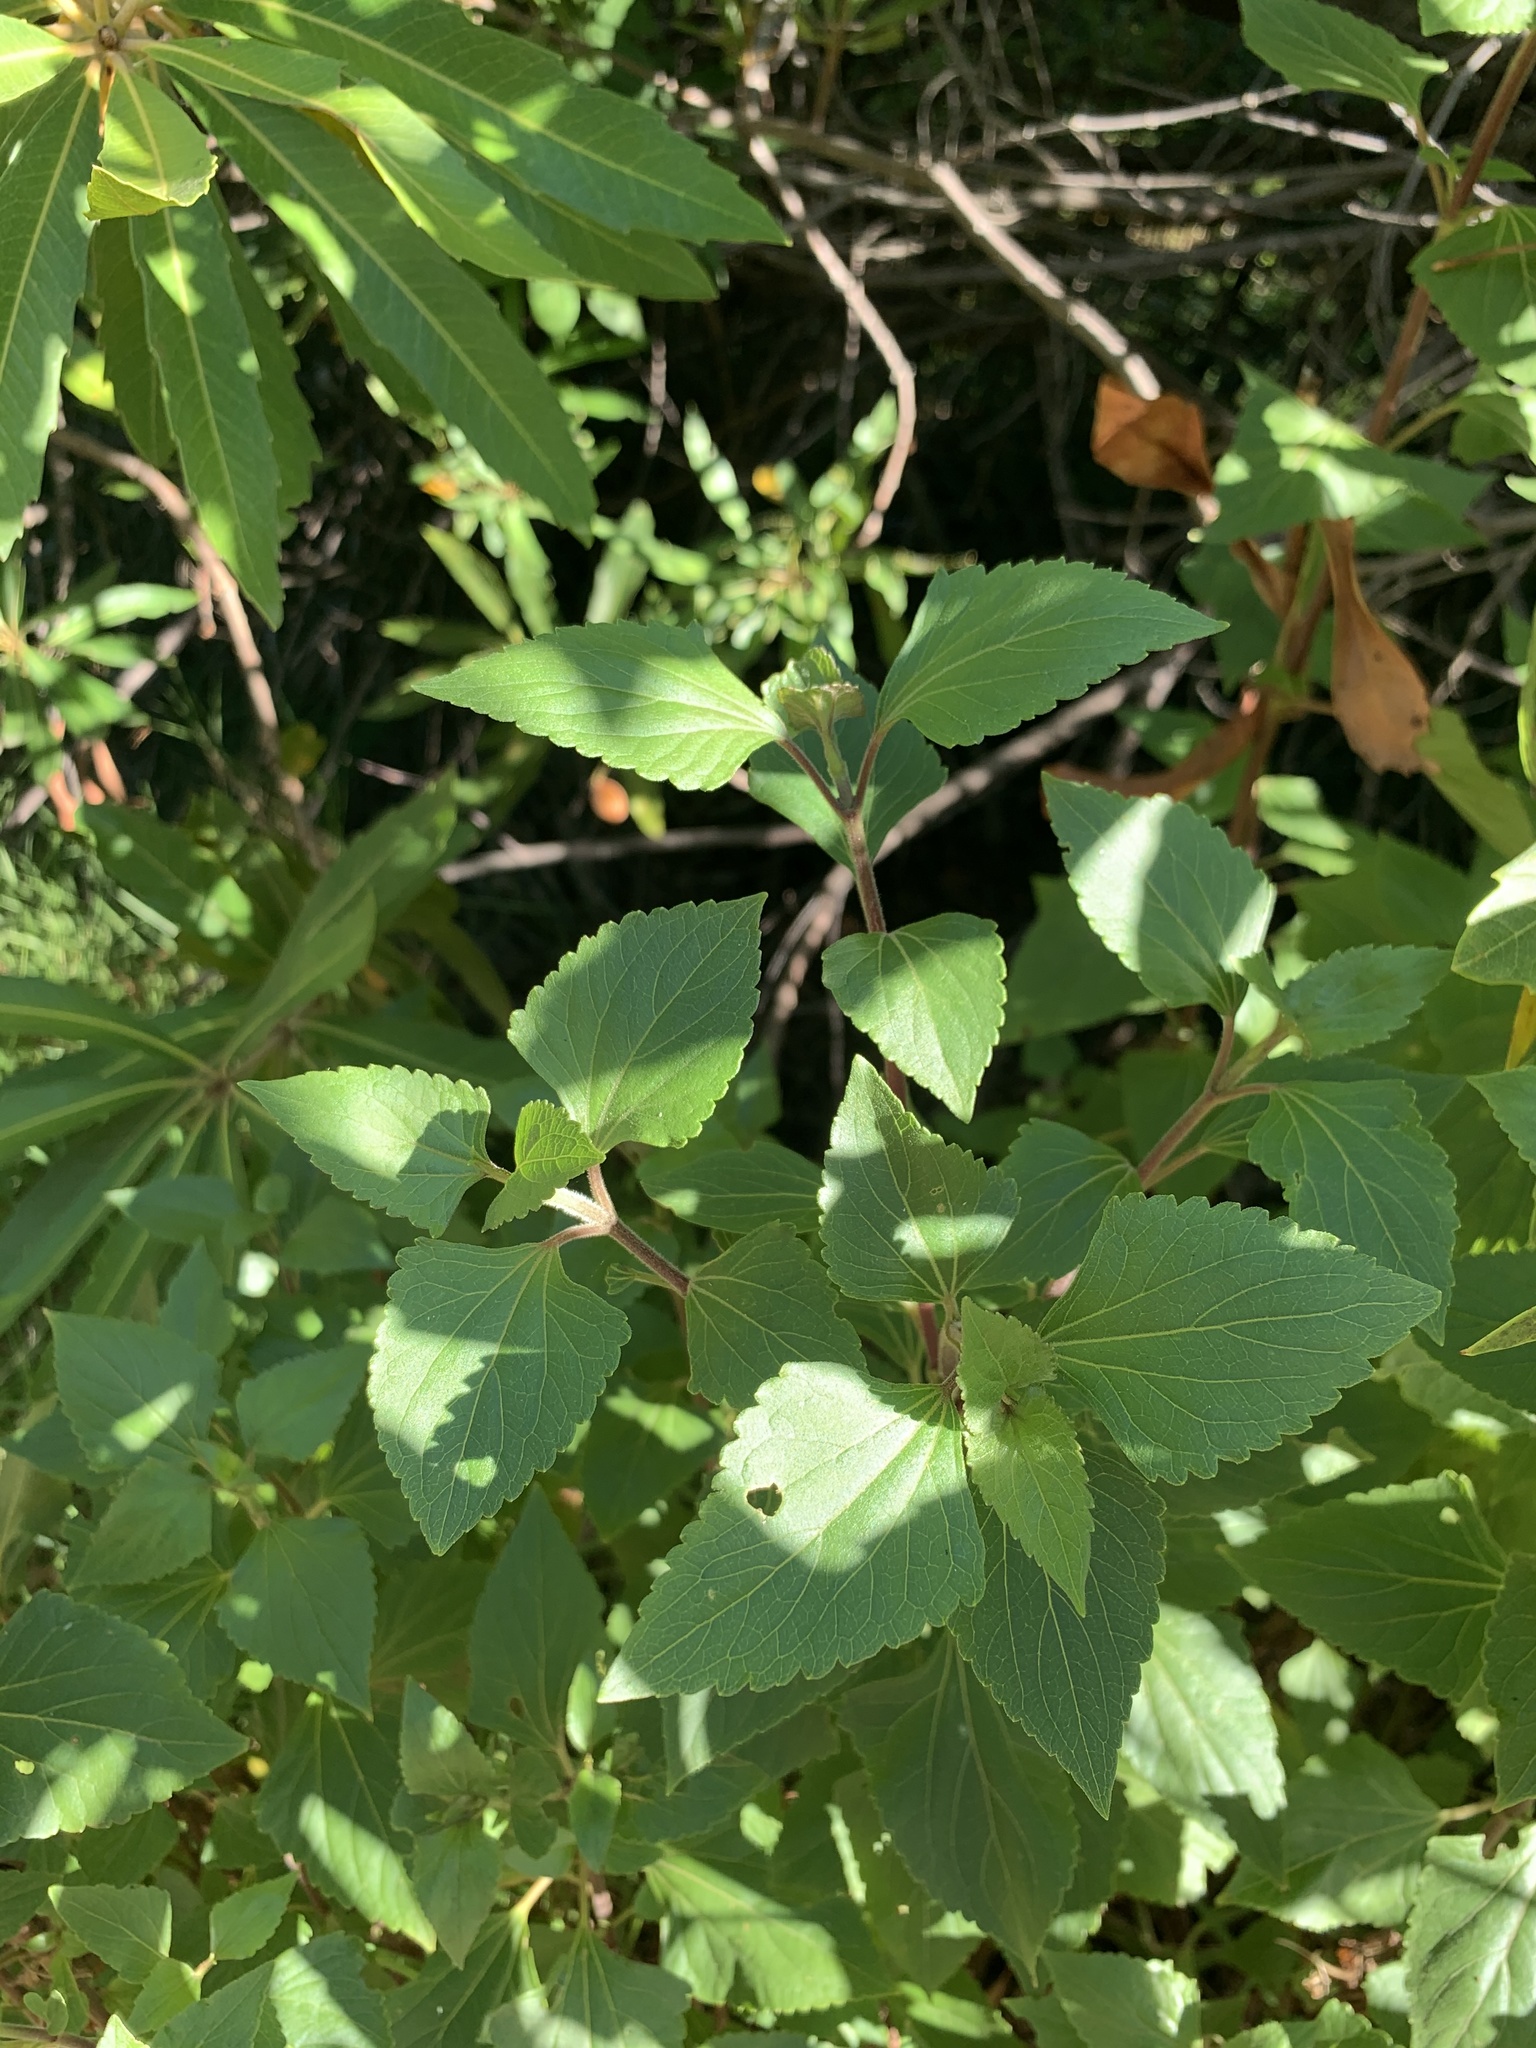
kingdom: Plantae
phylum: Tracheophyta
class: Magnoliopsida
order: Asterales
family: Asteraceae
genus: Ageratina
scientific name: Ageratina adenophora
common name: Sticky snakeroot
